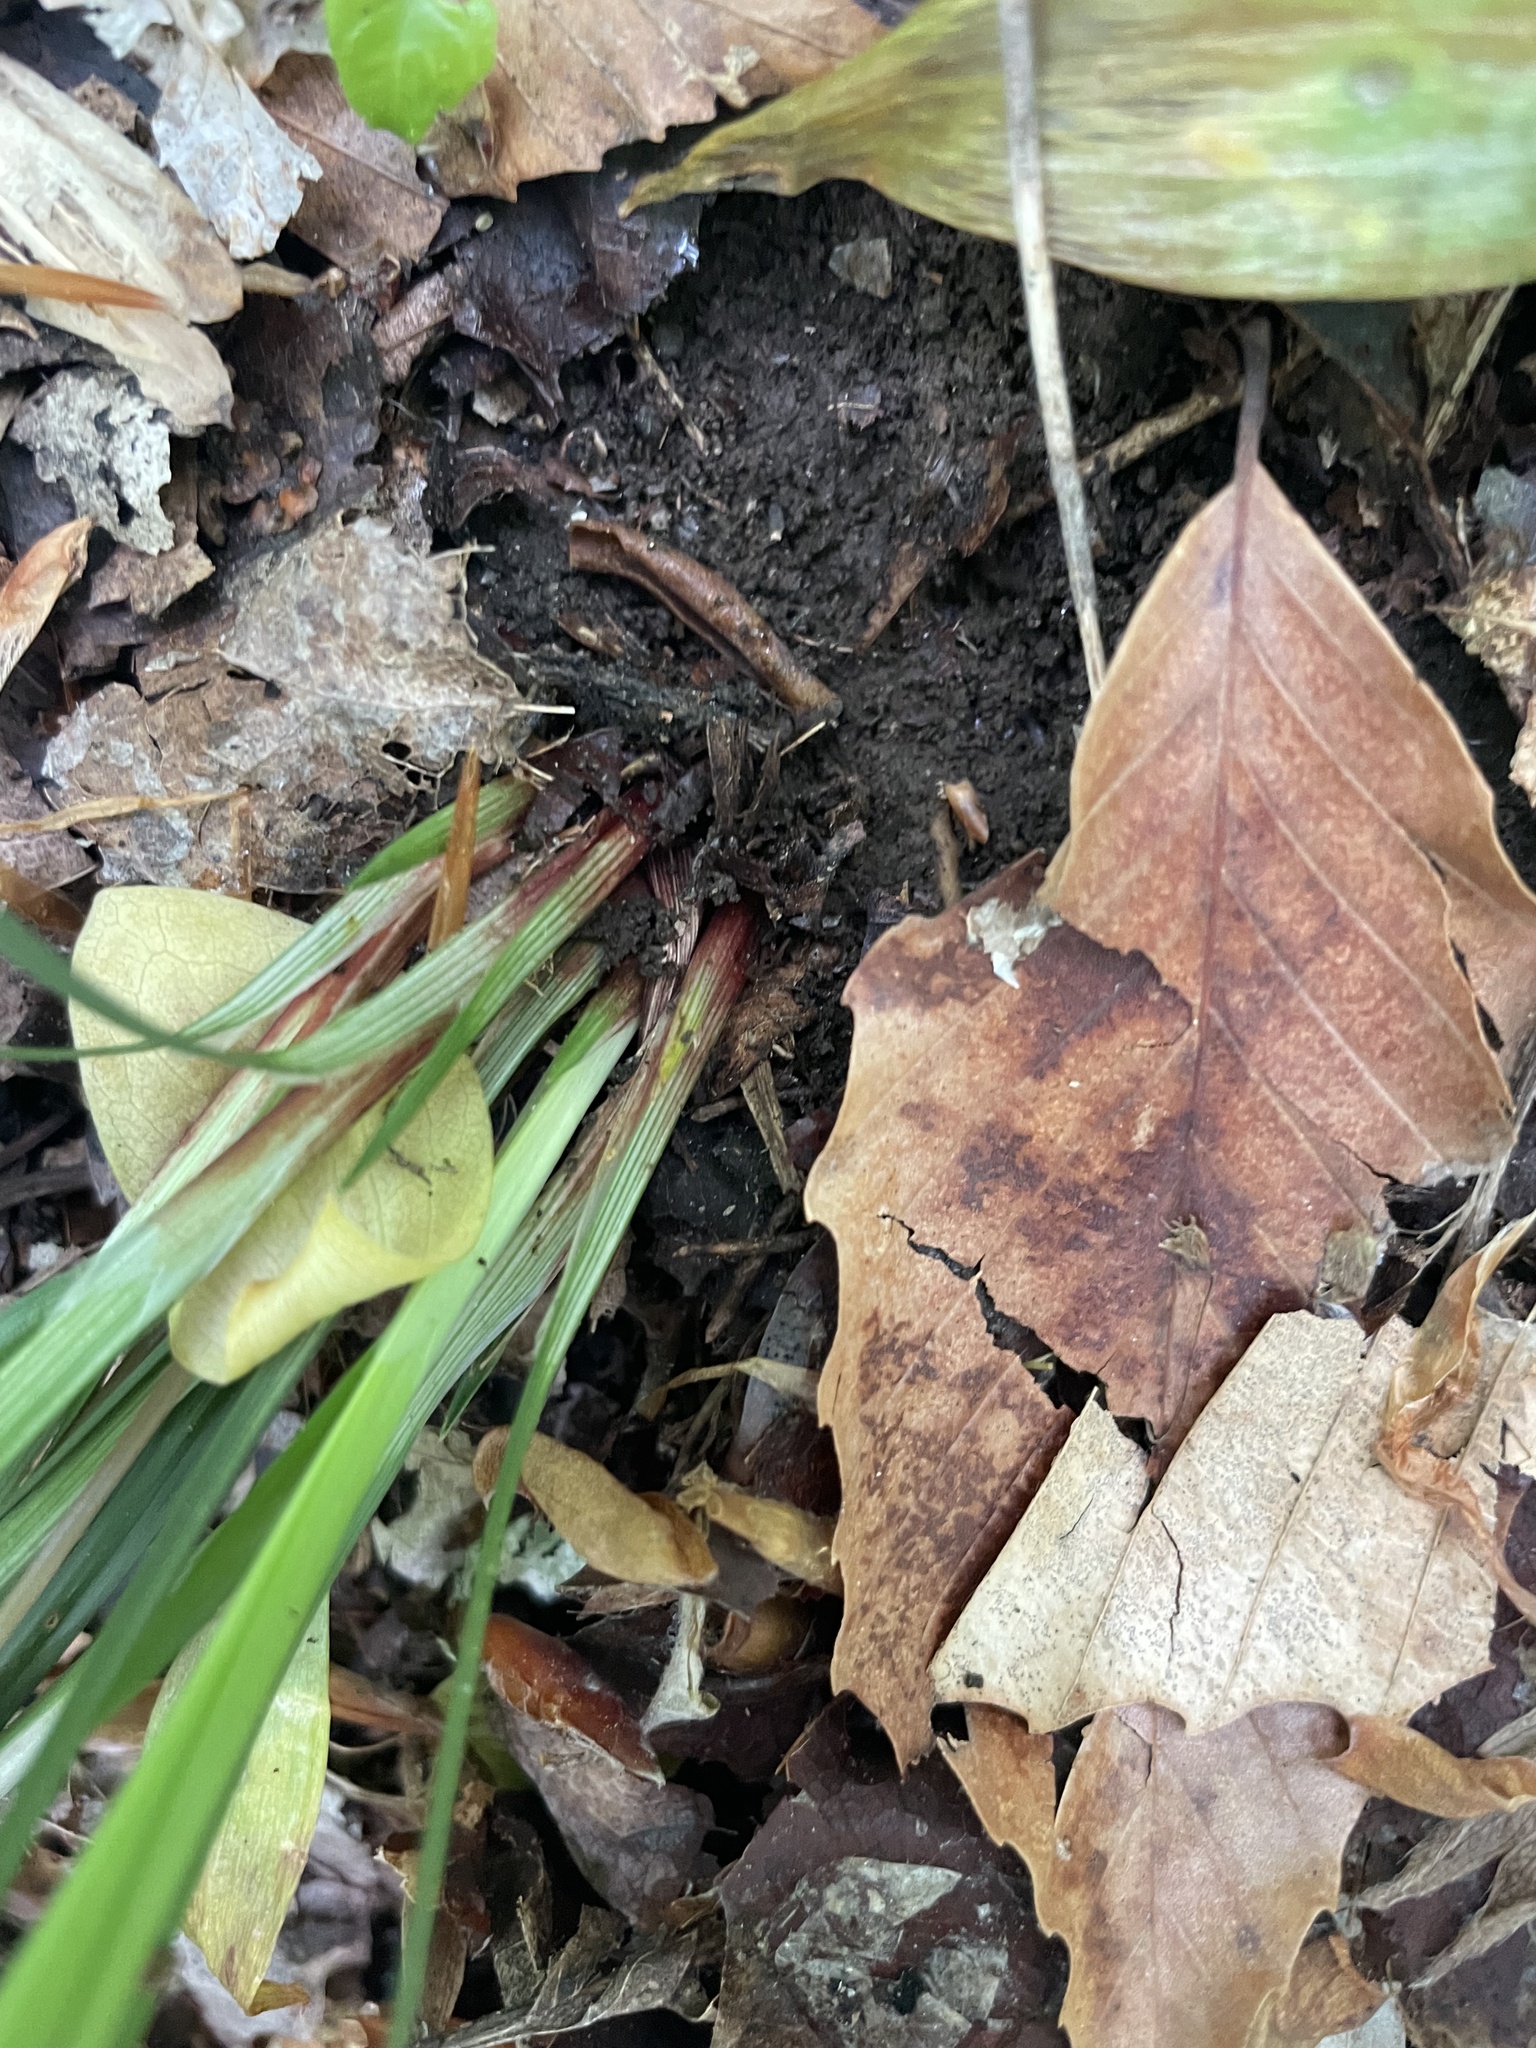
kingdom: Plantae
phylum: Tracheophyta
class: Liliopsida
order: Poales
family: Cyperaceae
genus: Carex
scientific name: Carex manhartii
